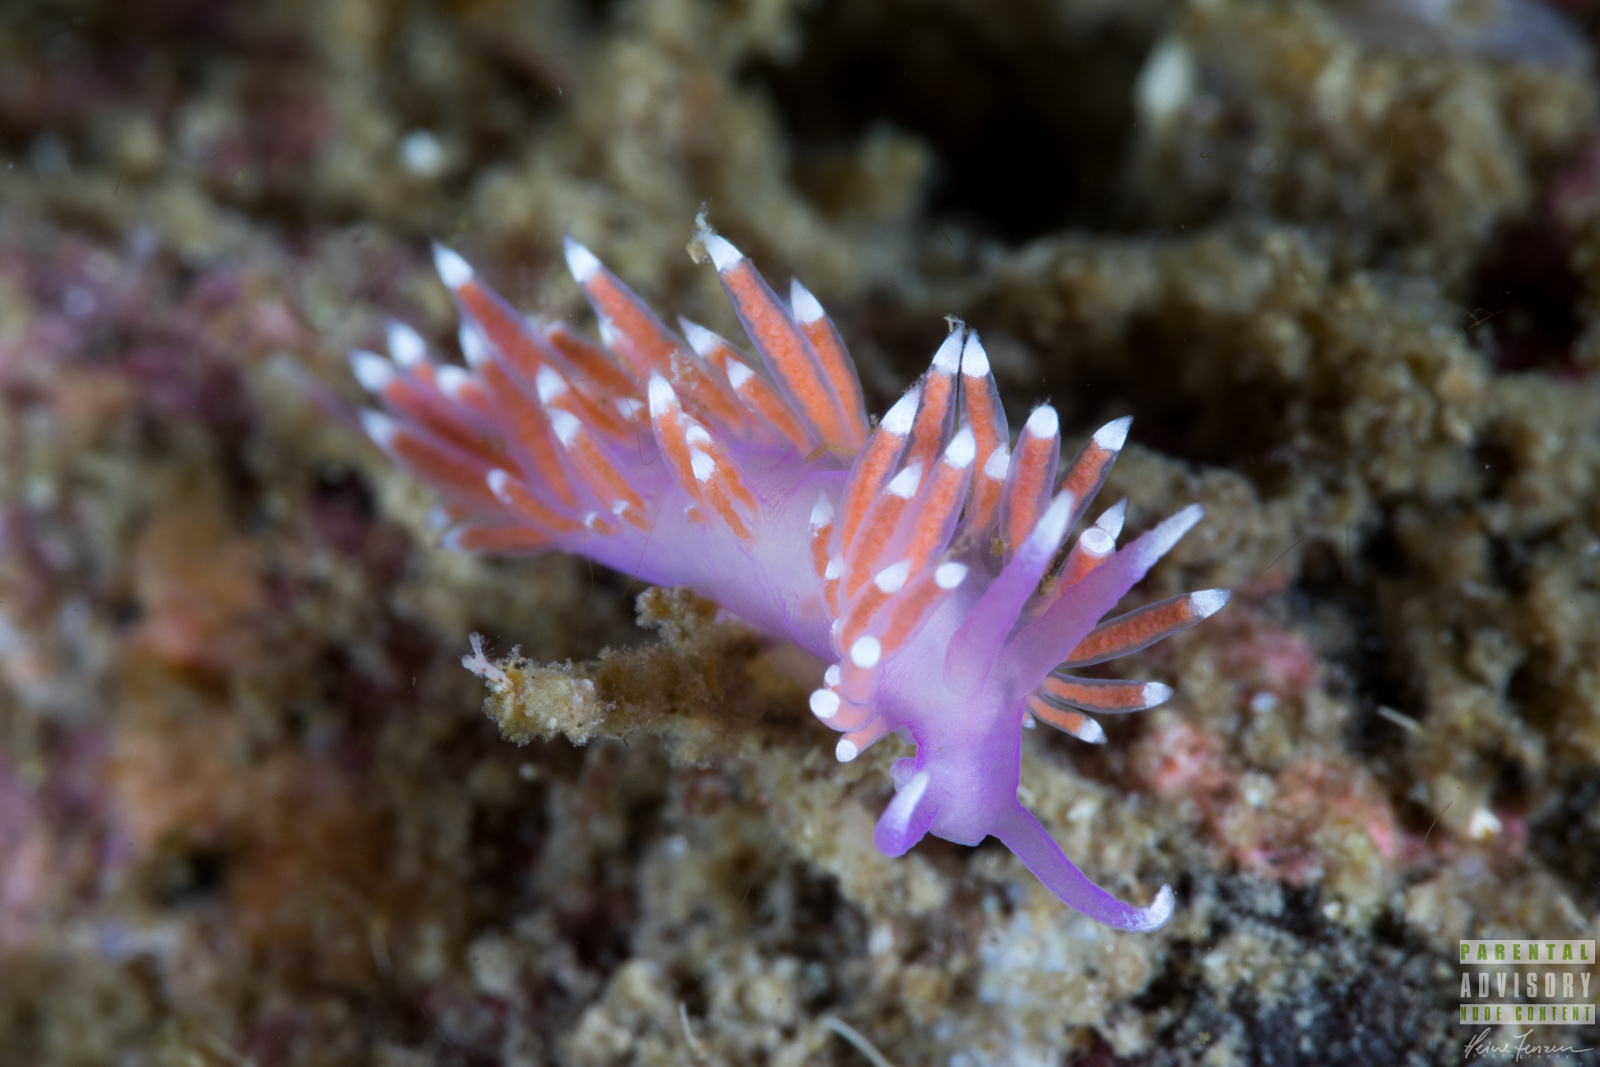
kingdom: Animalia
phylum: Mollusca
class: Gastropoda
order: Nudibranchia
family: Flabellinidae
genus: Edmundsella
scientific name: Edmundsella pedata
